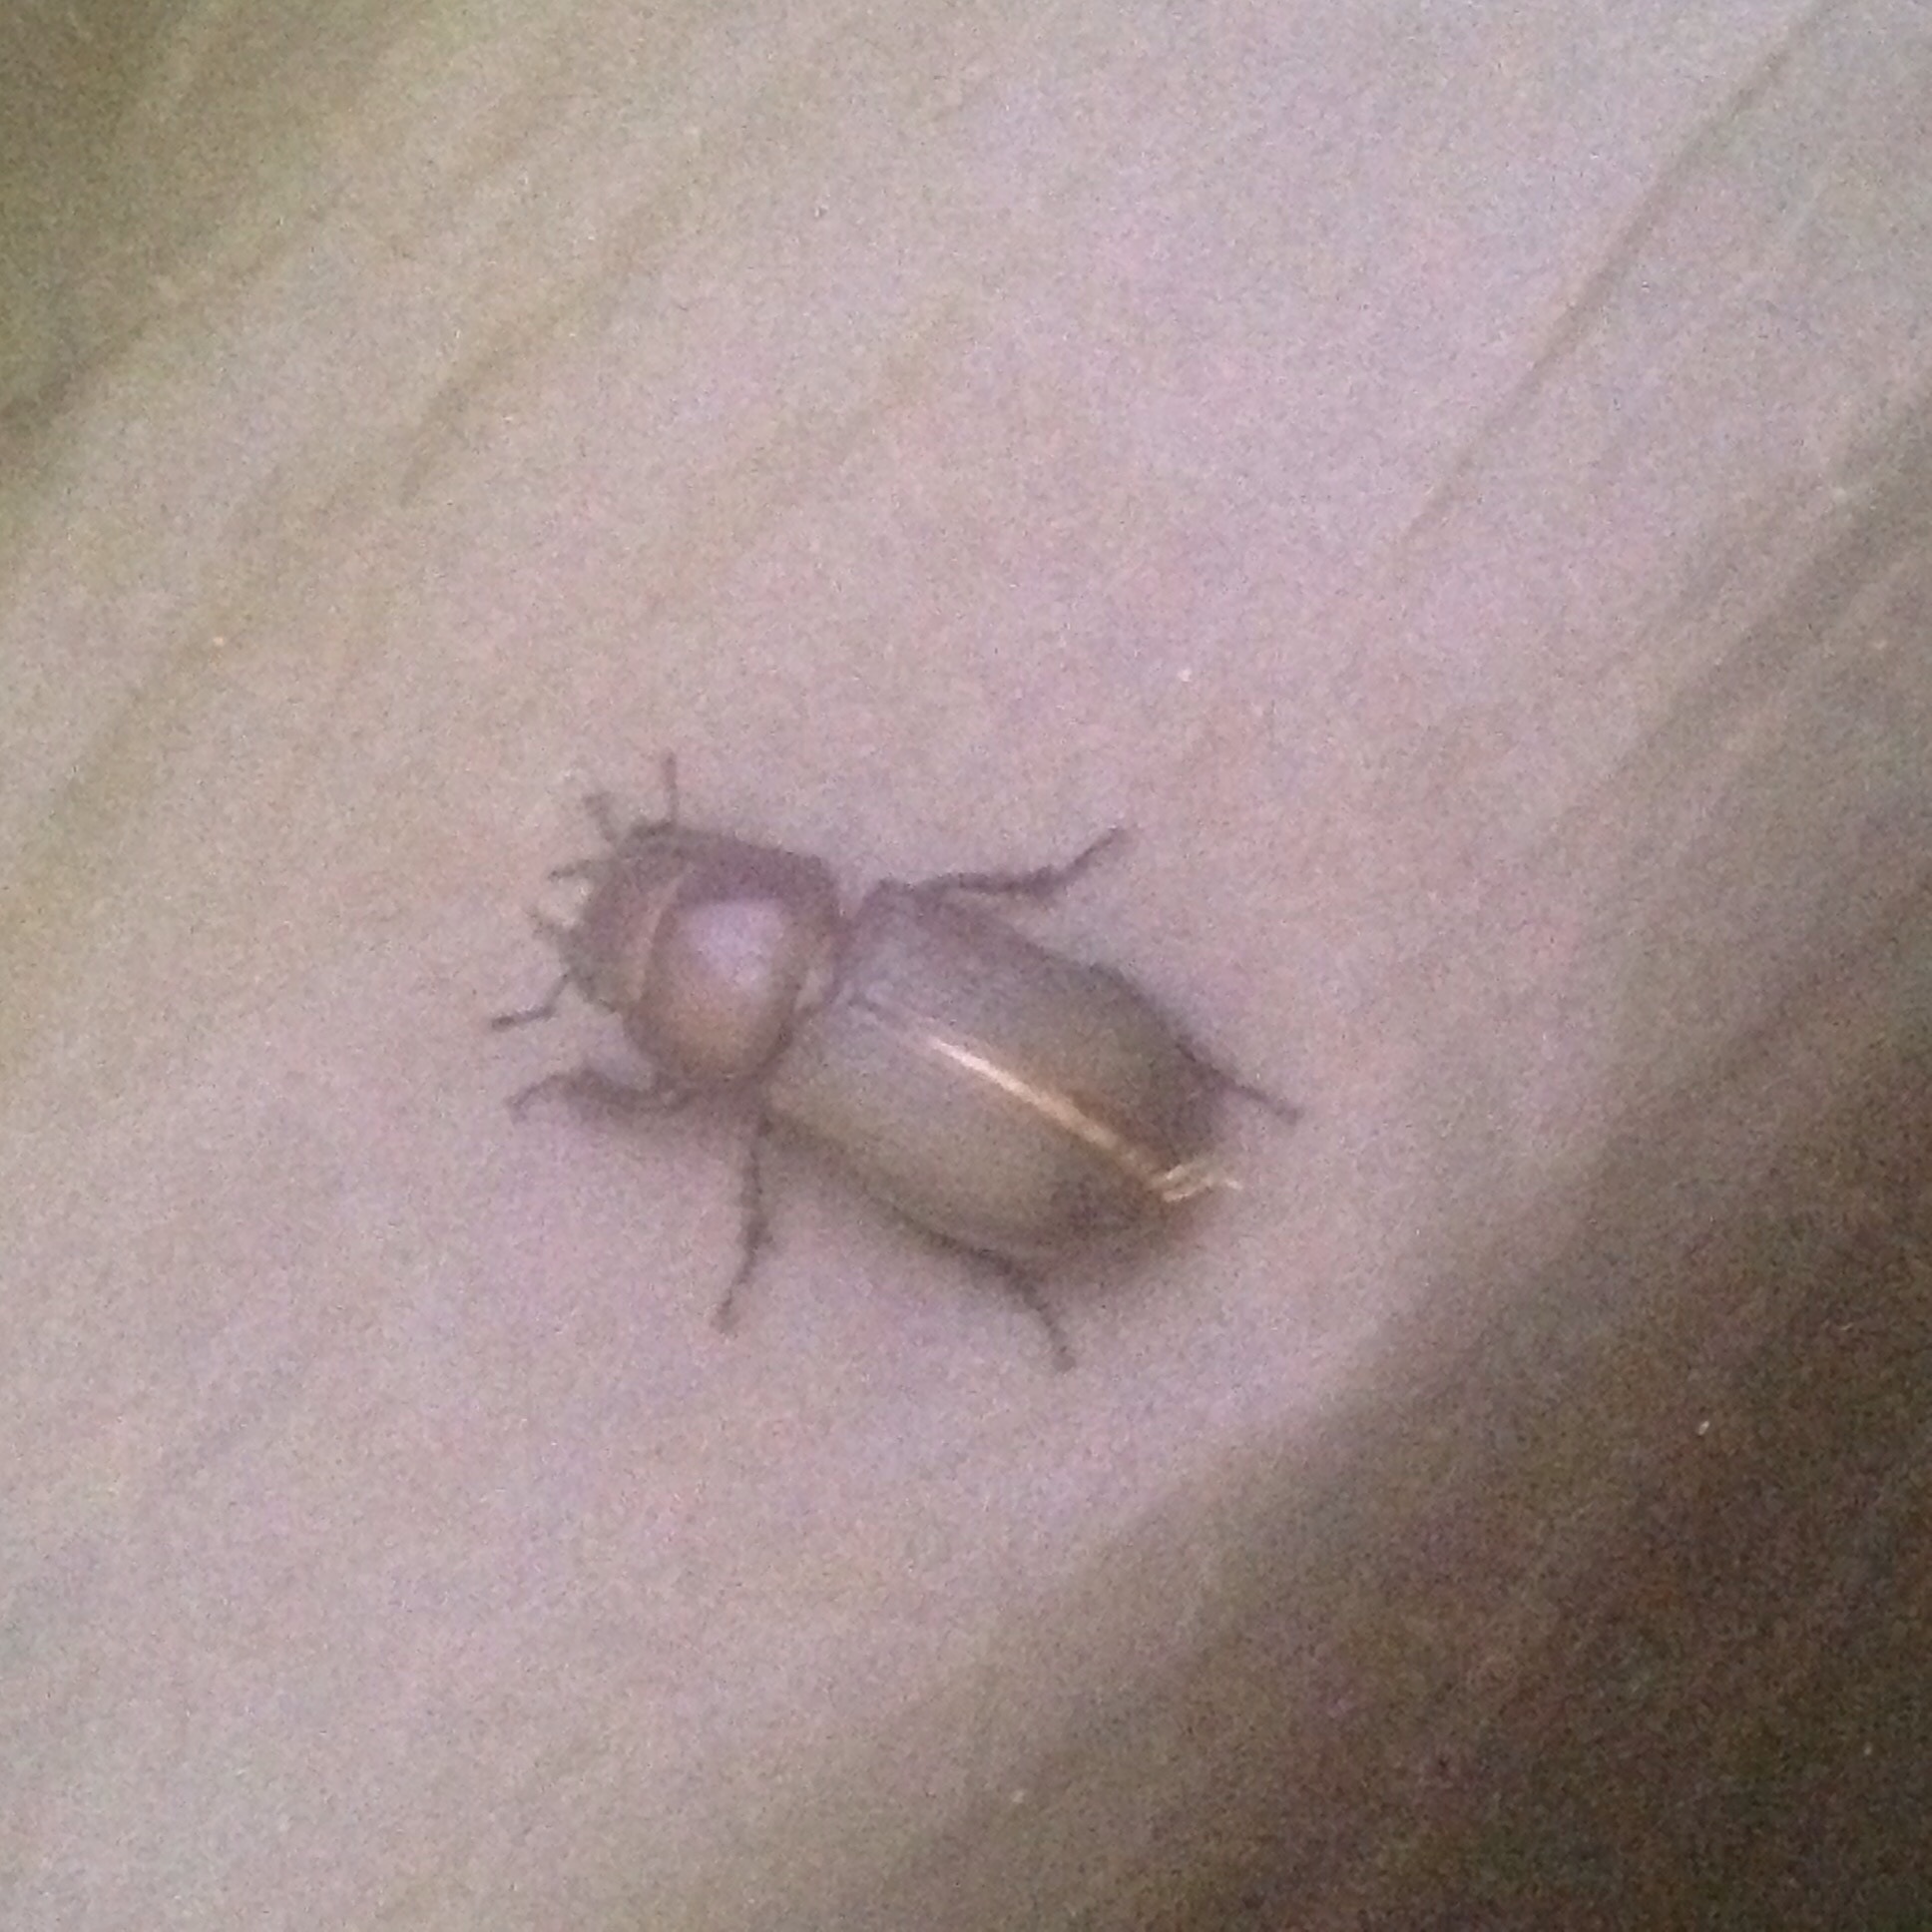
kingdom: Animalia
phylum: Arthropoda
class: Insecta
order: Coleoptera
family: Lucanidae
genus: Dorcus
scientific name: Dorcus parallelus
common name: Antelope beetle
